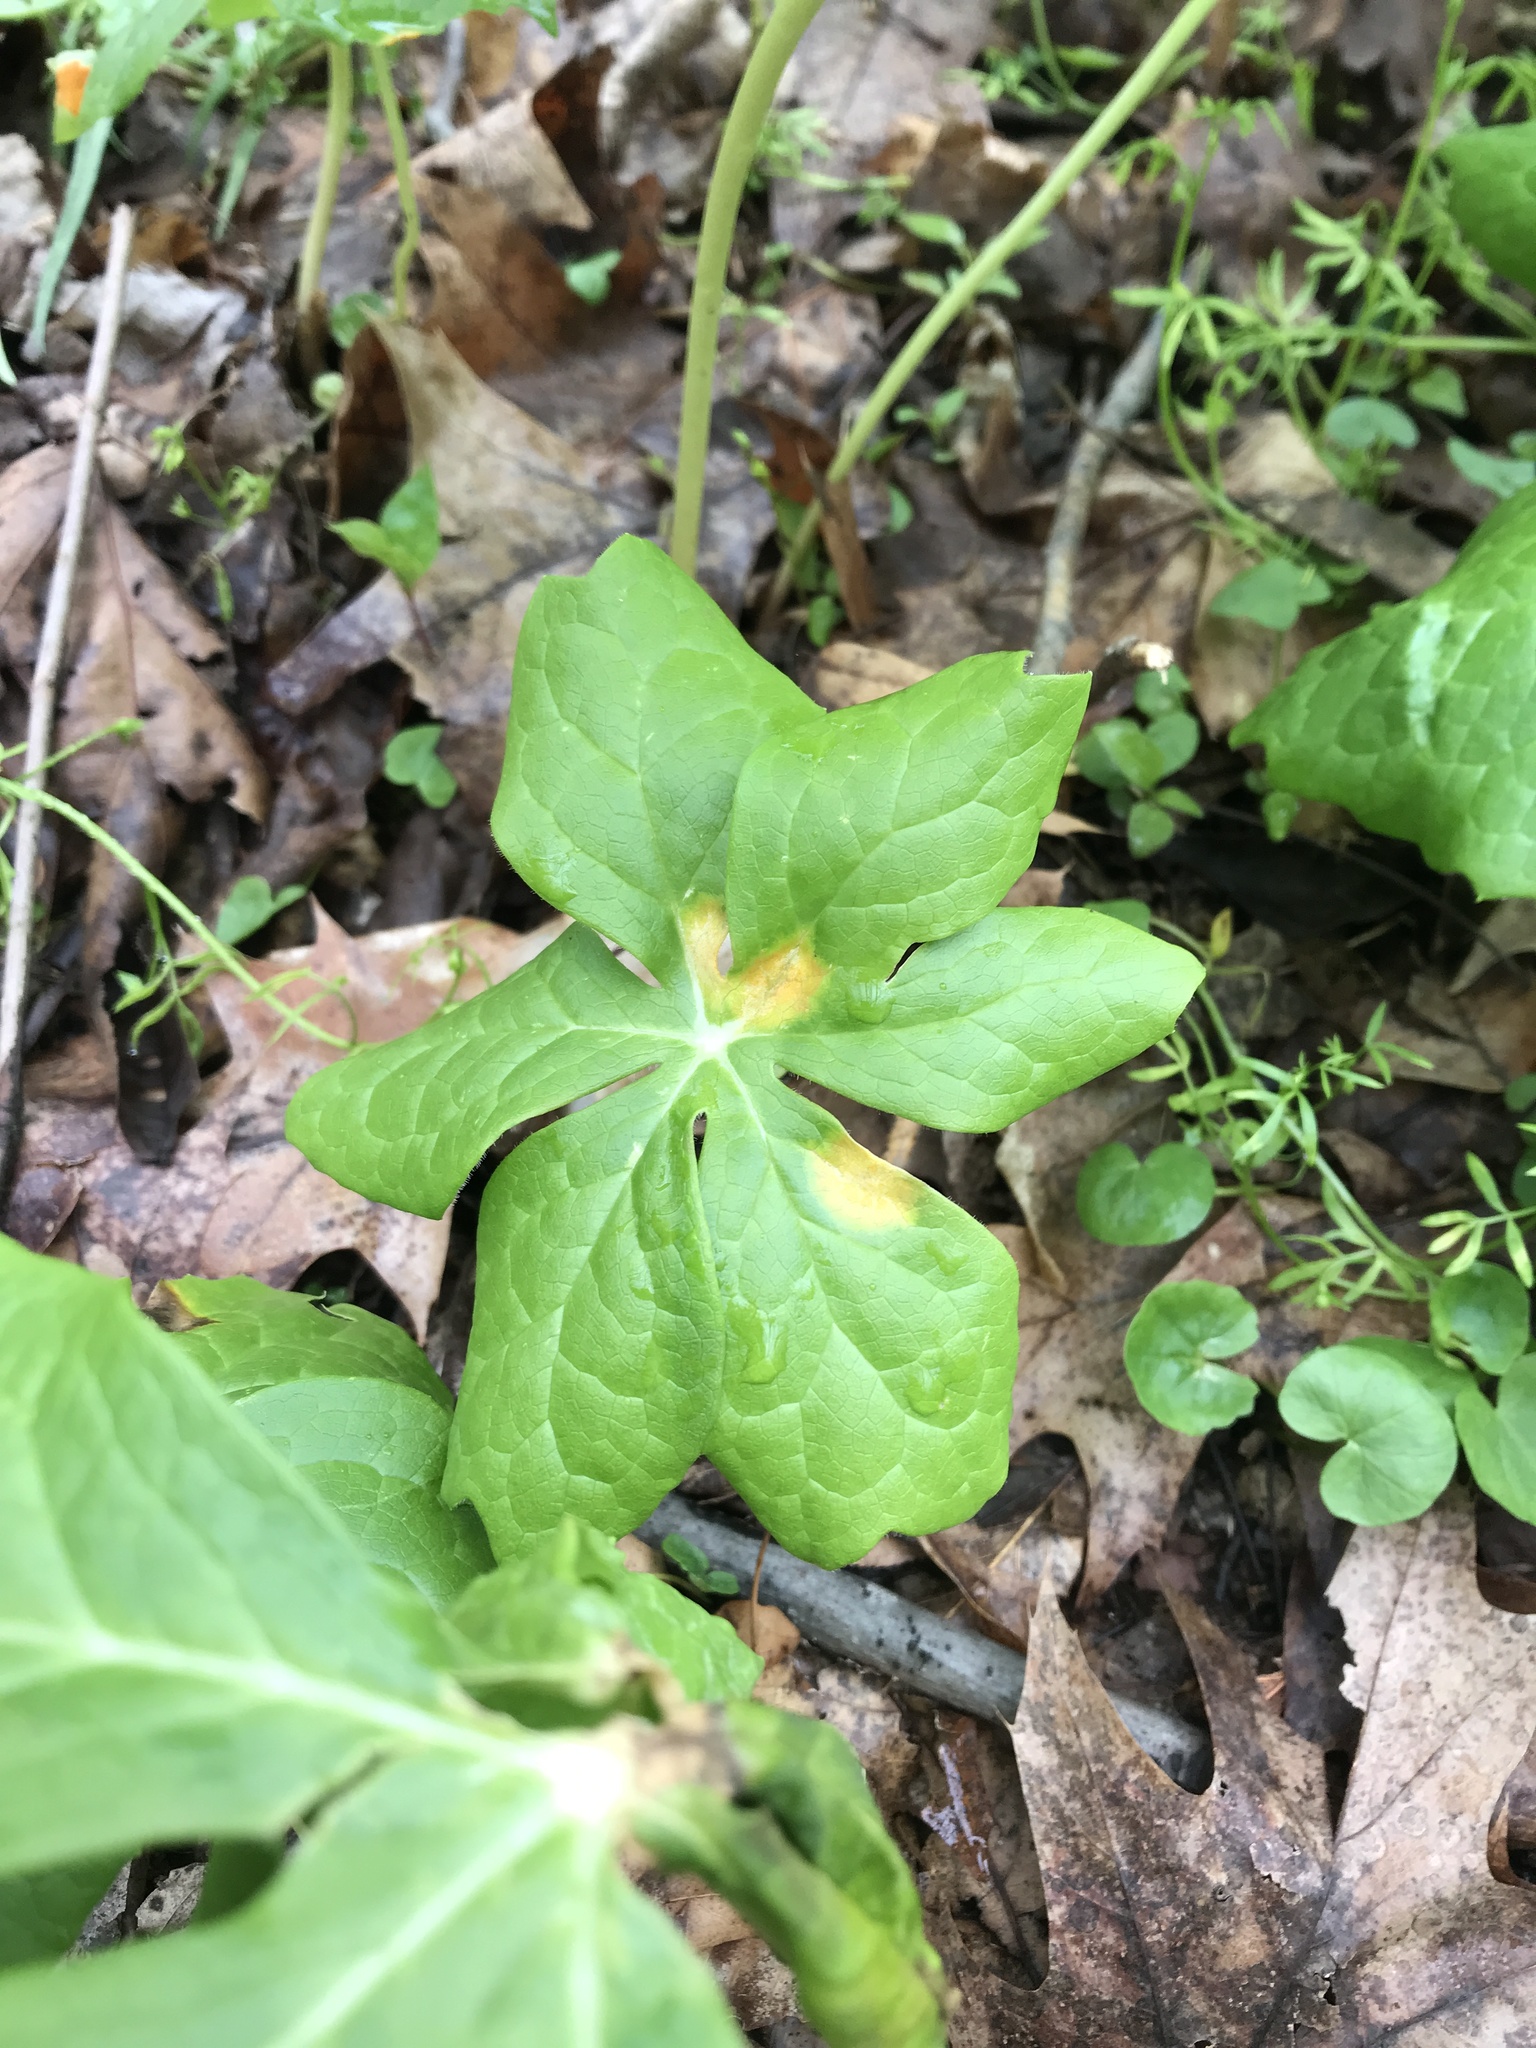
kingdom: Fungi
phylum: Basidiomycota
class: Pucciniomycetes
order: Pucciniales
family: Pucciniaceae
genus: Puccinia
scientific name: Puccinia podophylli
